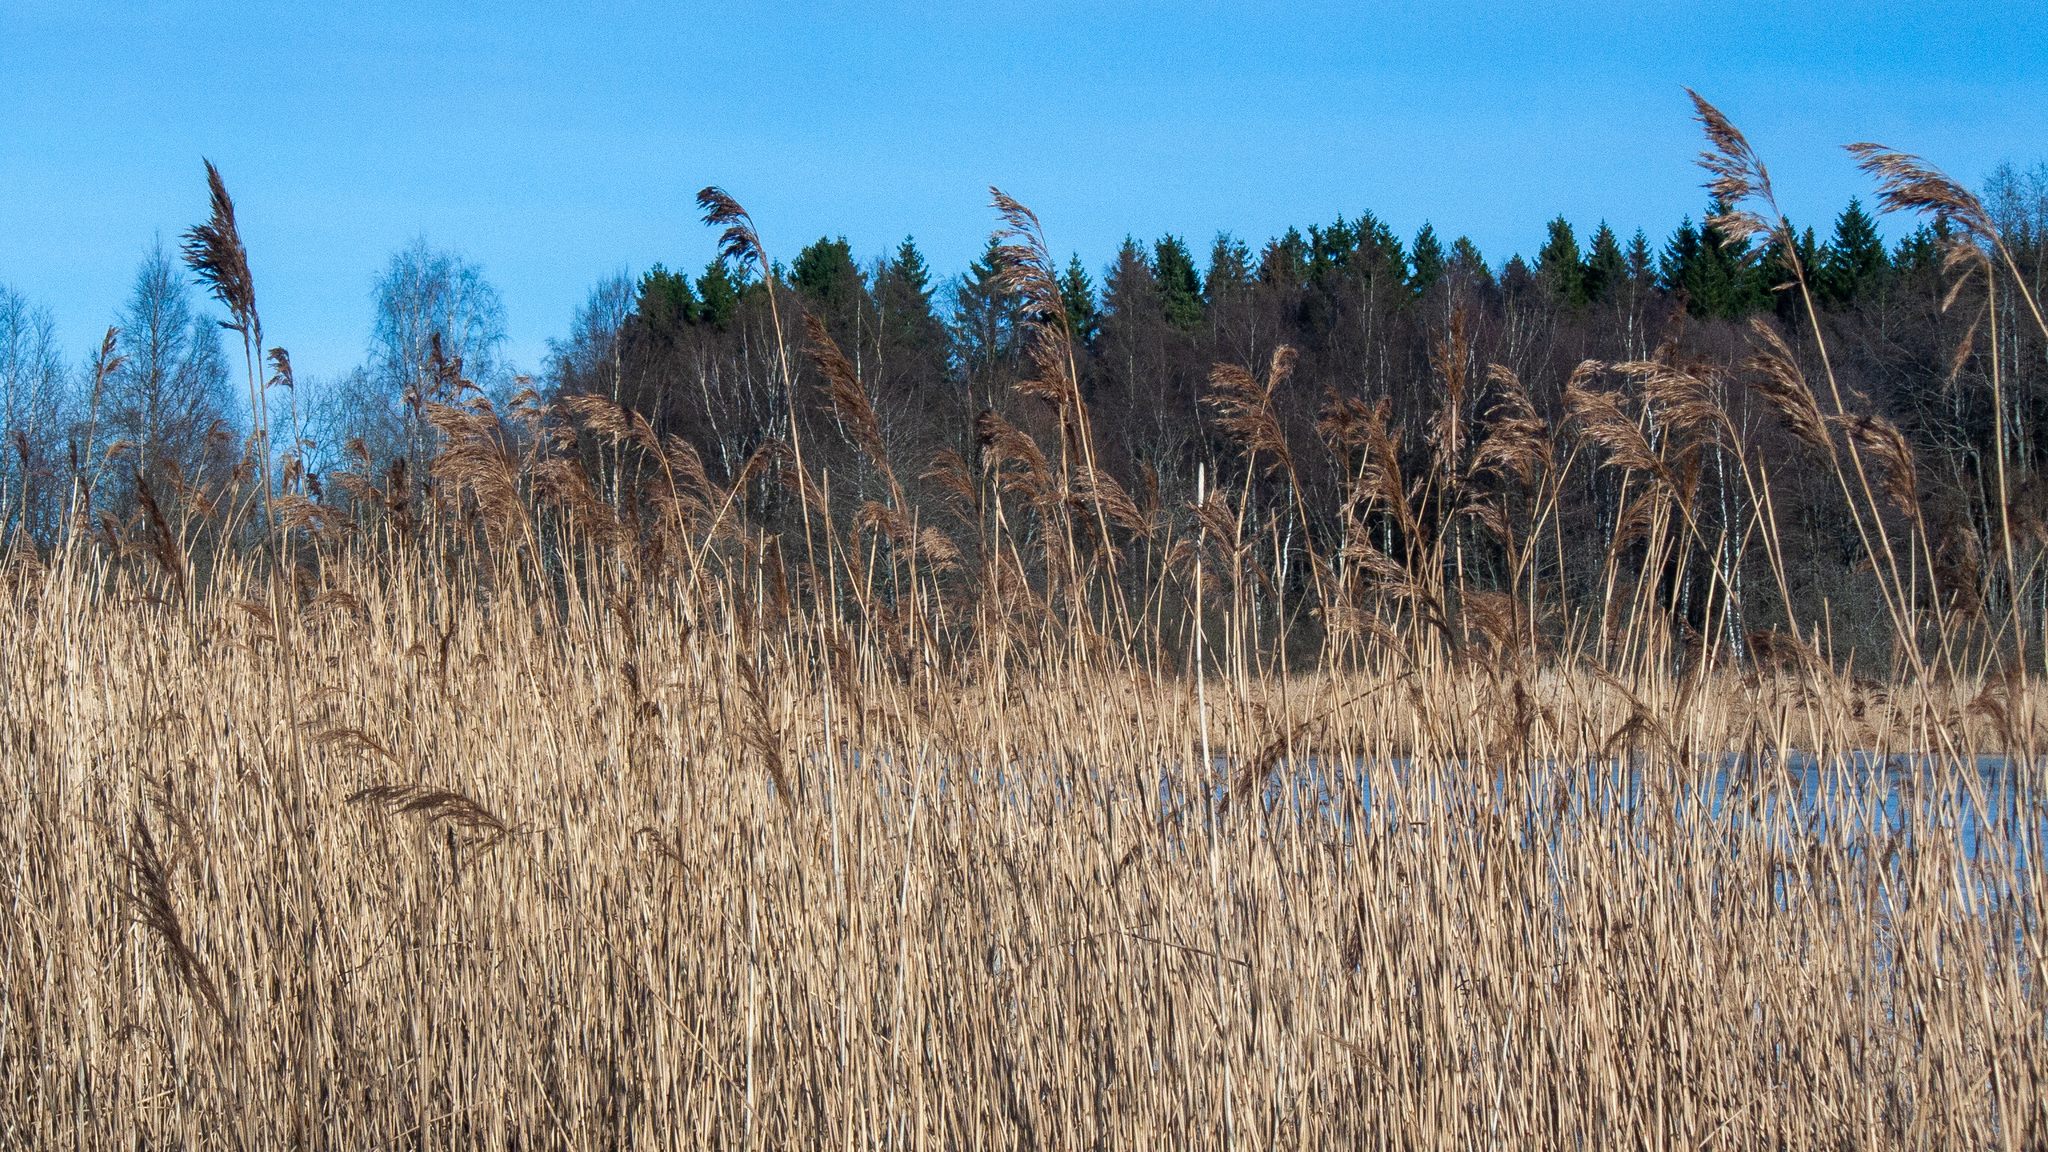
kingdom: Plantae
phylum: Tracheophyta
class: Liliopsida
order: Poales
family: Poaceae
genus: Phragmites
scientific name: Phragmites australis
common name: Common reed
